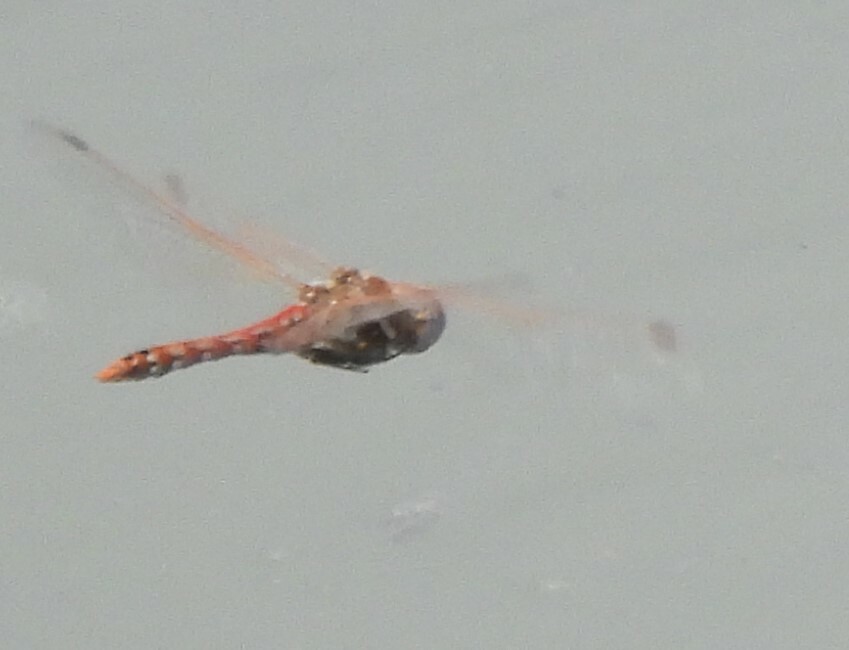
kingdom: Animalia
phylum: Arthropoda
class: Insecta
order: Odonata
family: Libellulidae
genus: Sympetrum
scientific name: Sympetrum corruptum
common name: Variegated meadowhawk
